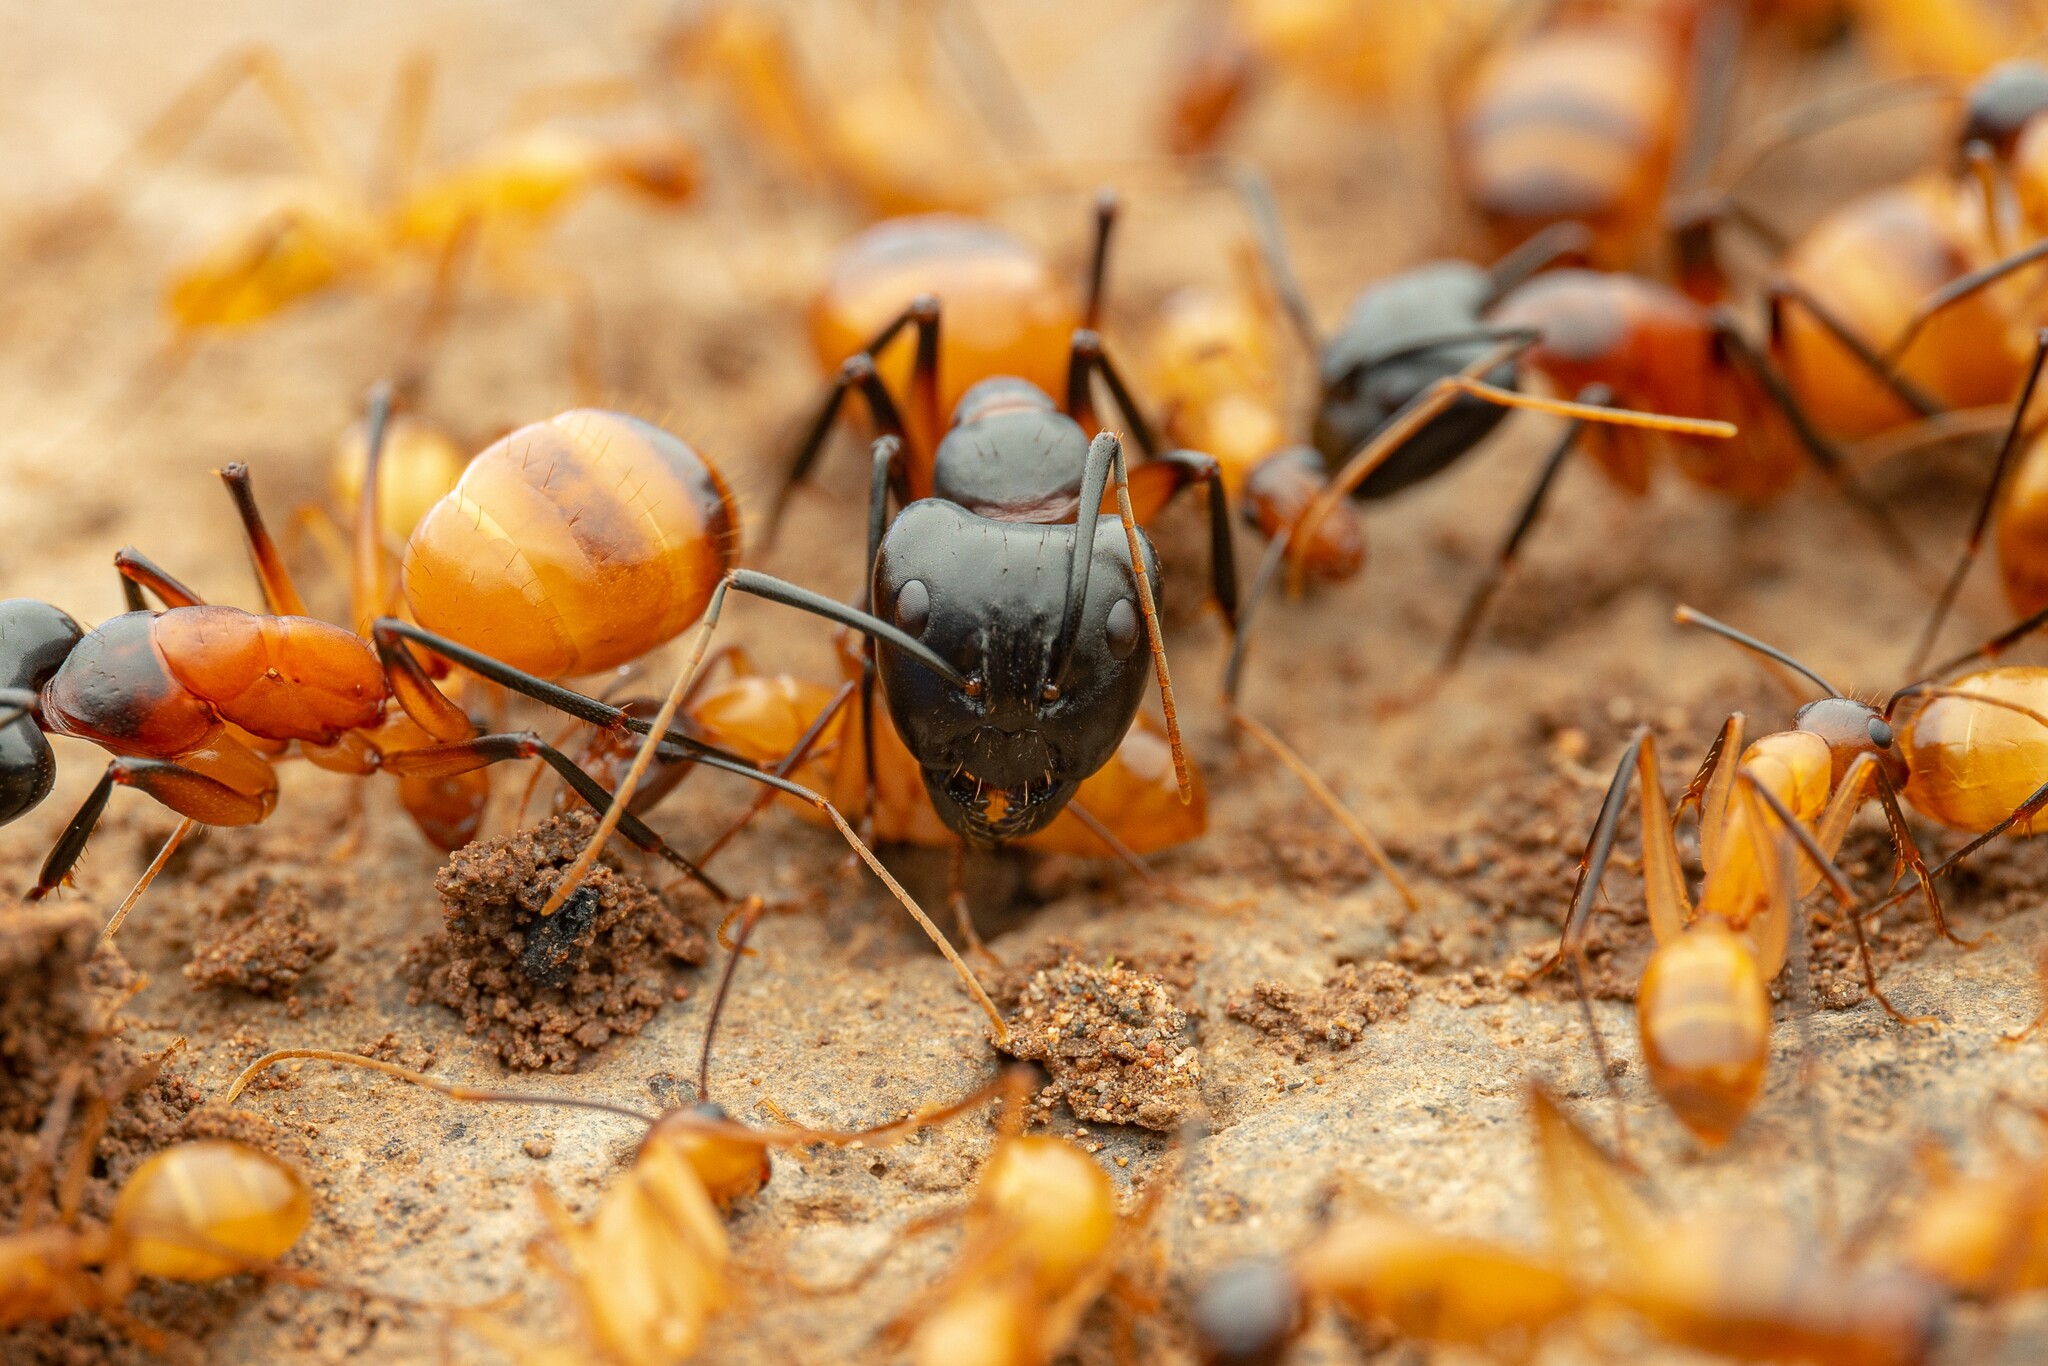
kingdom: Animalia
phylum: Arthropoda
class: Insecta
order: Hymenoptera
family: Formicidae
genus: Camponotus
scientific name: Camponotus ocreatus
